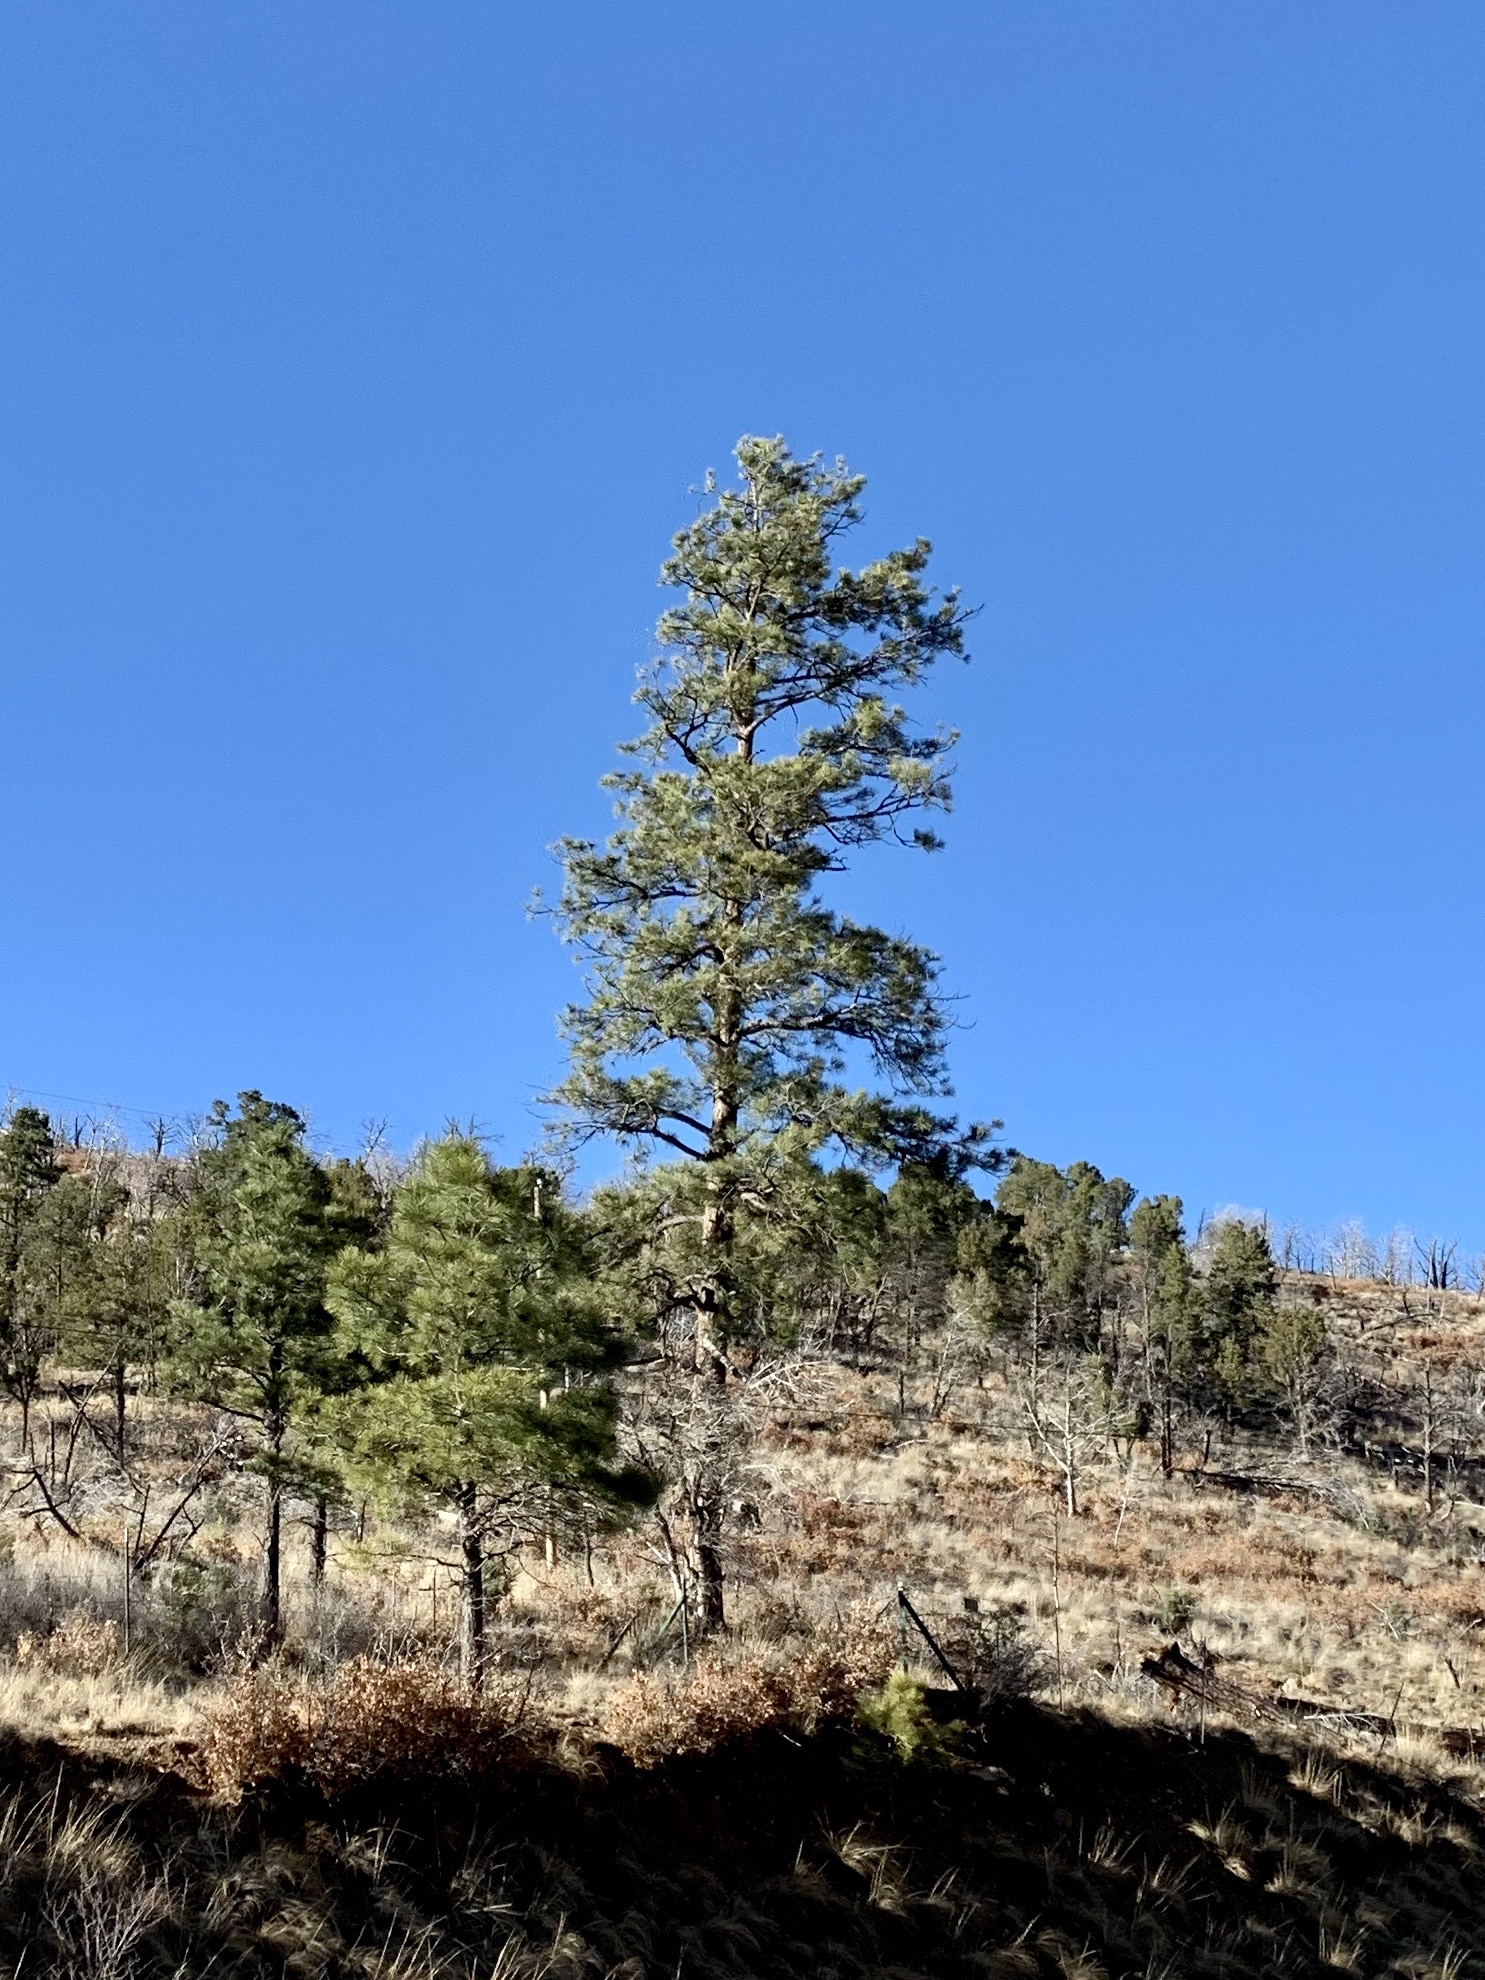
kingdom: Plantae
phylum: Tracheophyta
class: Pinopsida
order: Pinales
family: Pinaceae
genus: Pinus
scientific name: Pinus ponderosa
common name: Western yellow-pine
